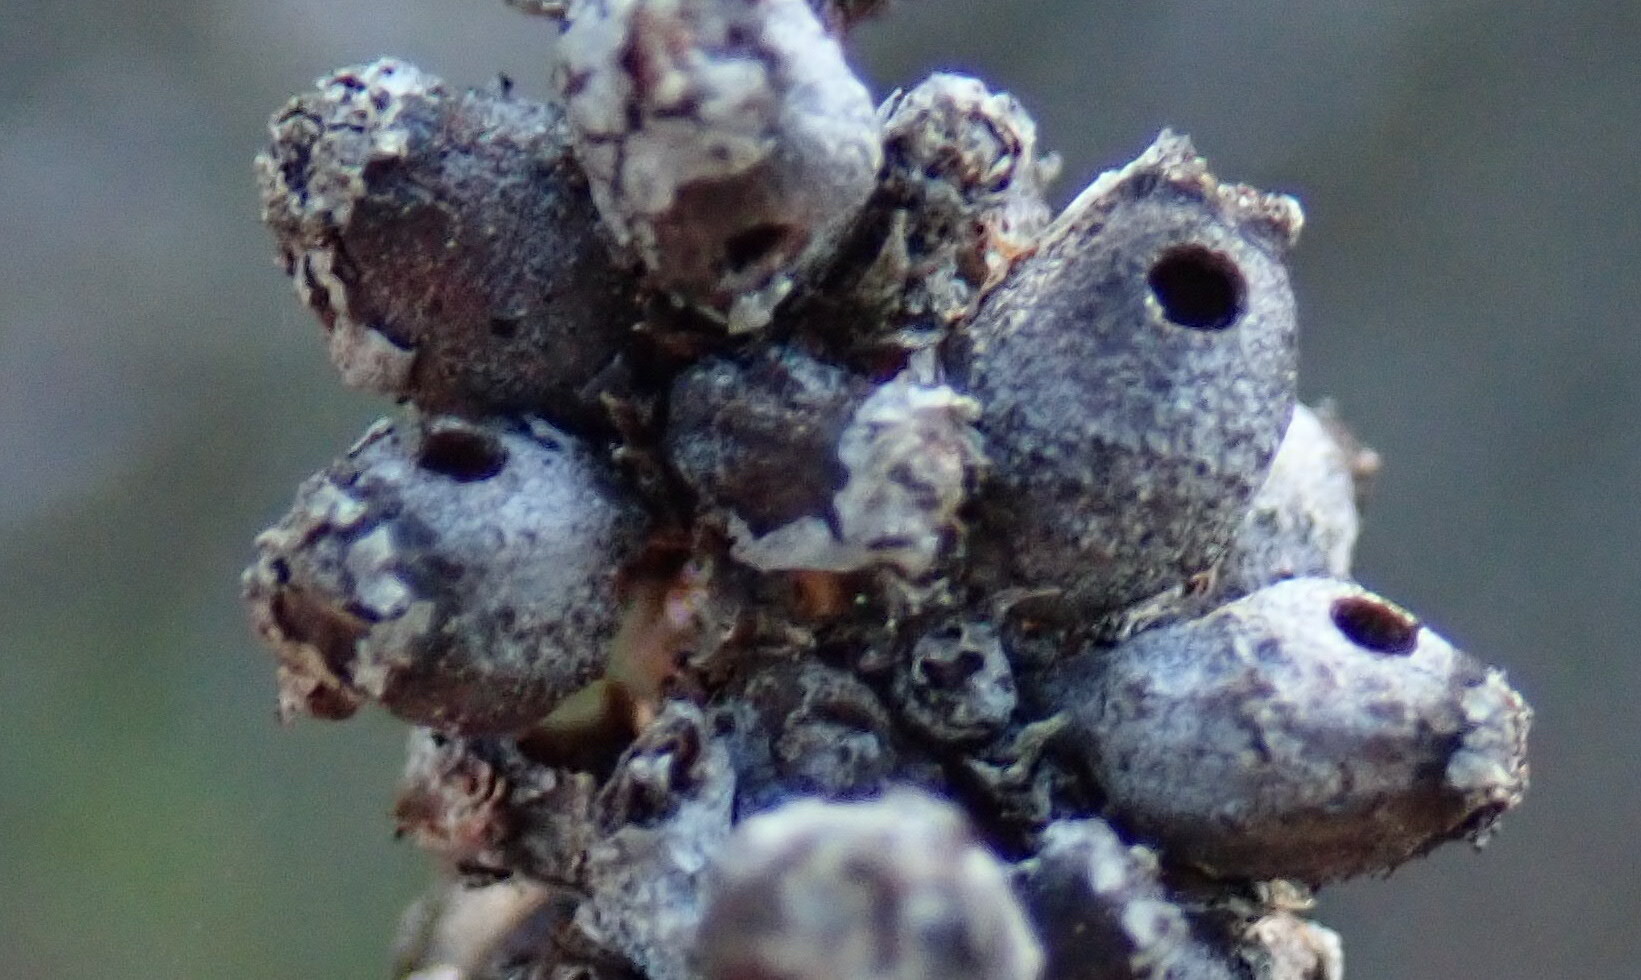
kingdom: Animalia
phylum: Arthropoda
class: Insecta
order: Diptera
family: Cecidomyiidae
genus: Asphondylia
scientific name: Asphondylia adenostoma
